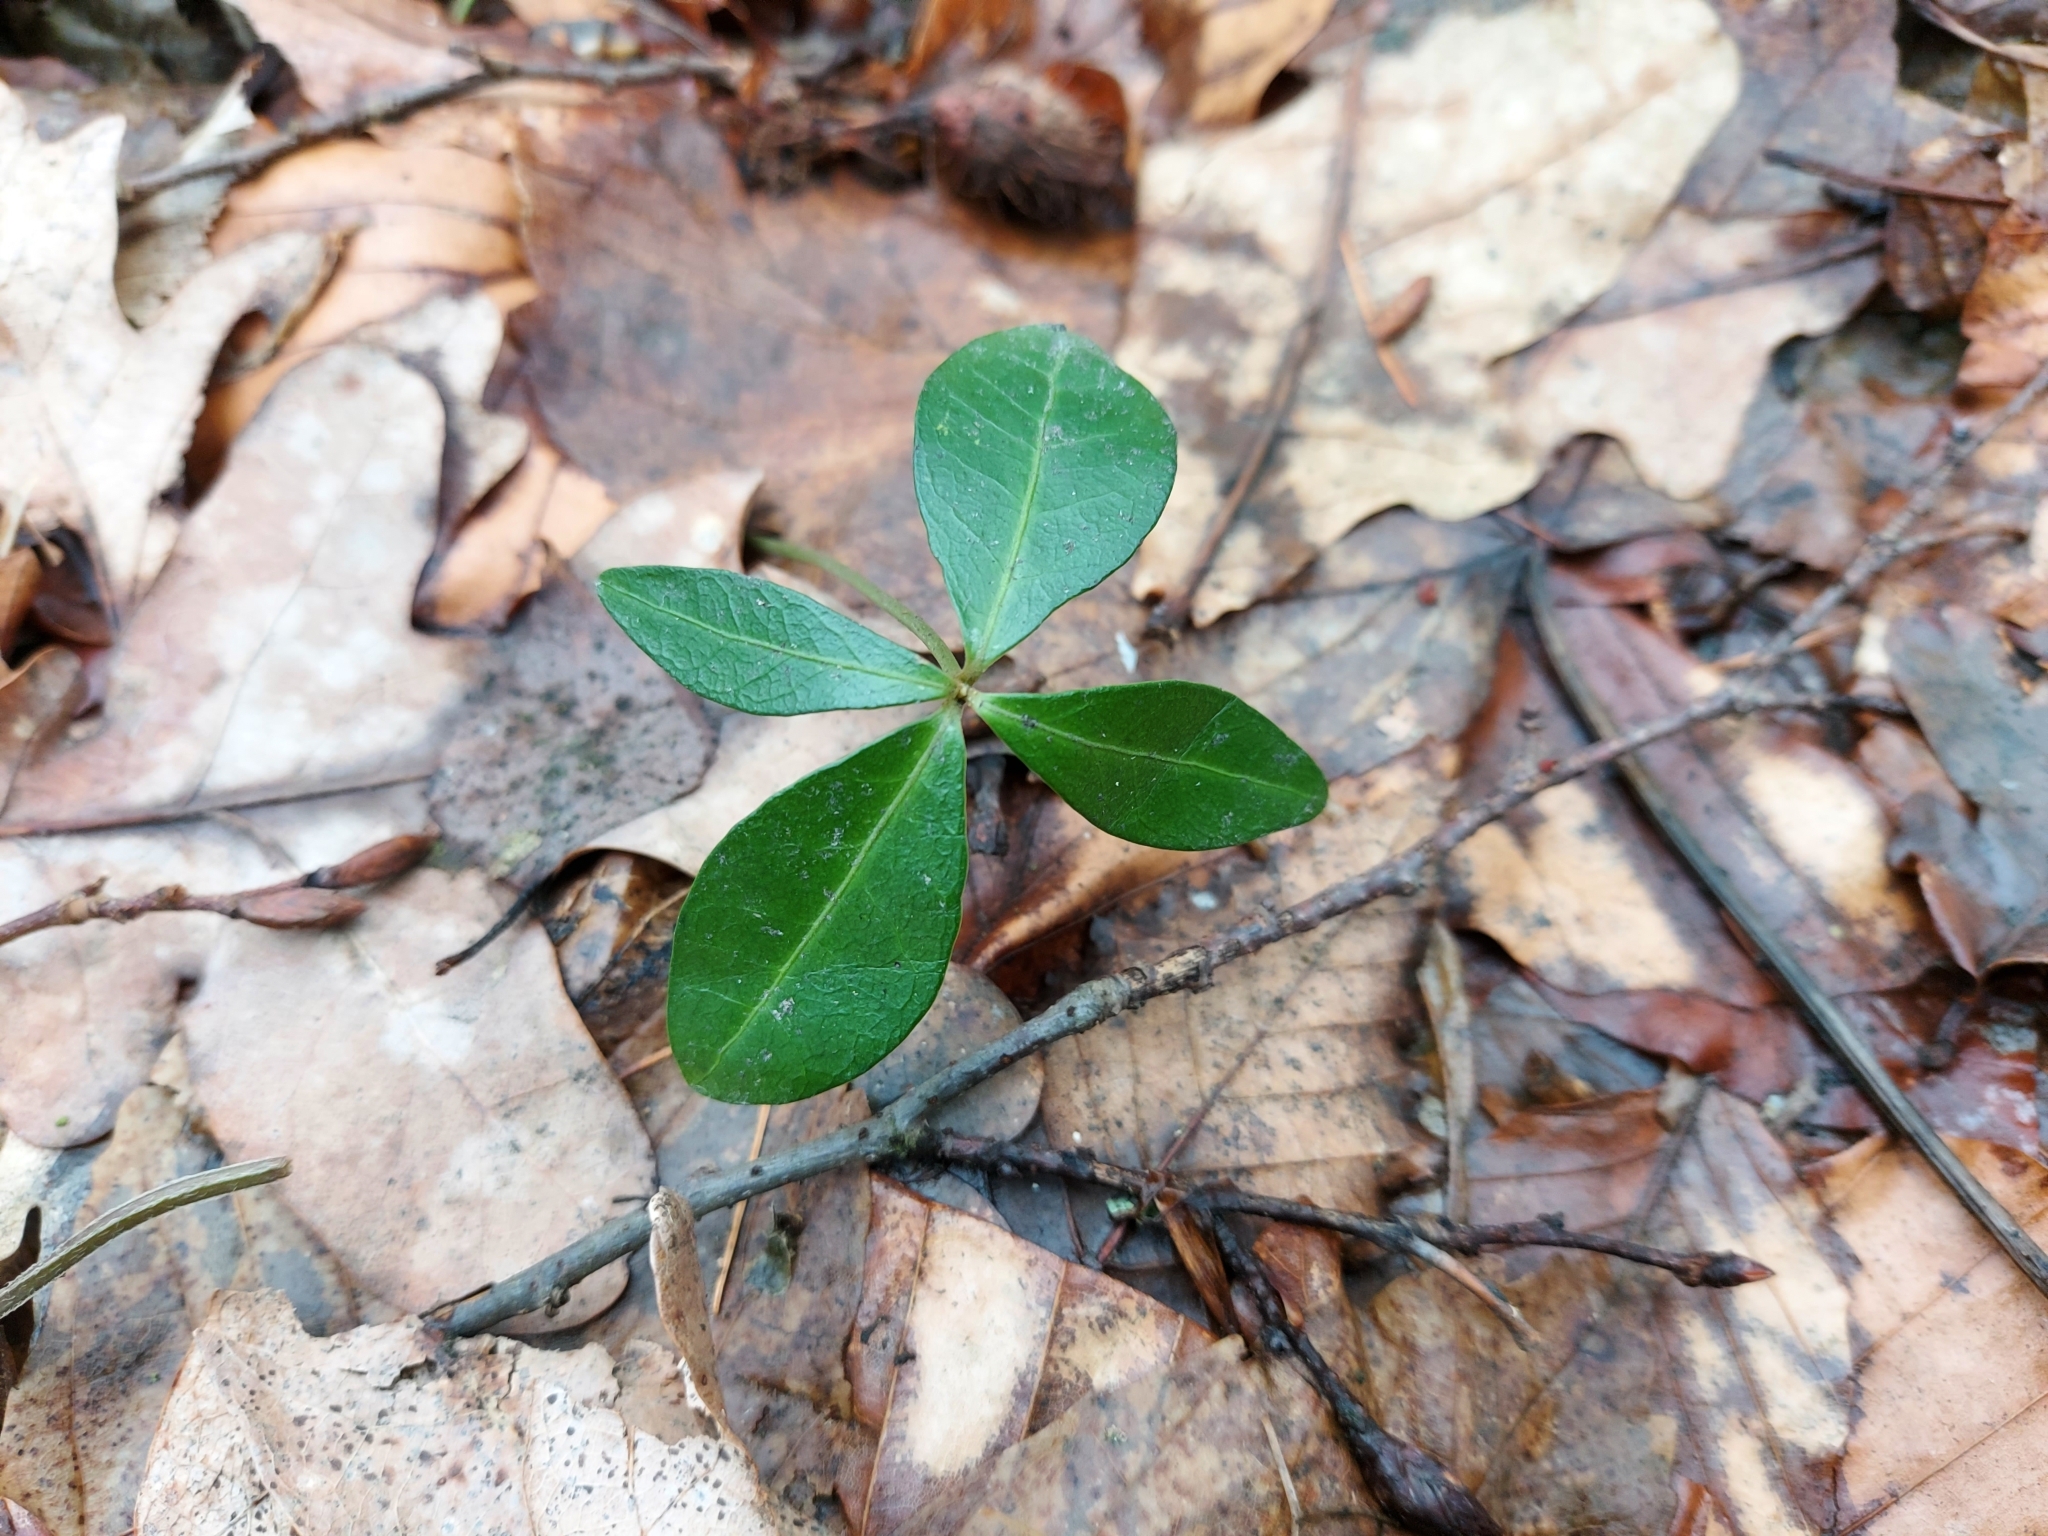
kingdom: Plantae
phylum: Tracheophyta
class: Magnoliopsida
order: Gentianales
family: Apocynaceae
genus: Vinca
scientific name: Vinca minor
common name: Lesser periwinkle
